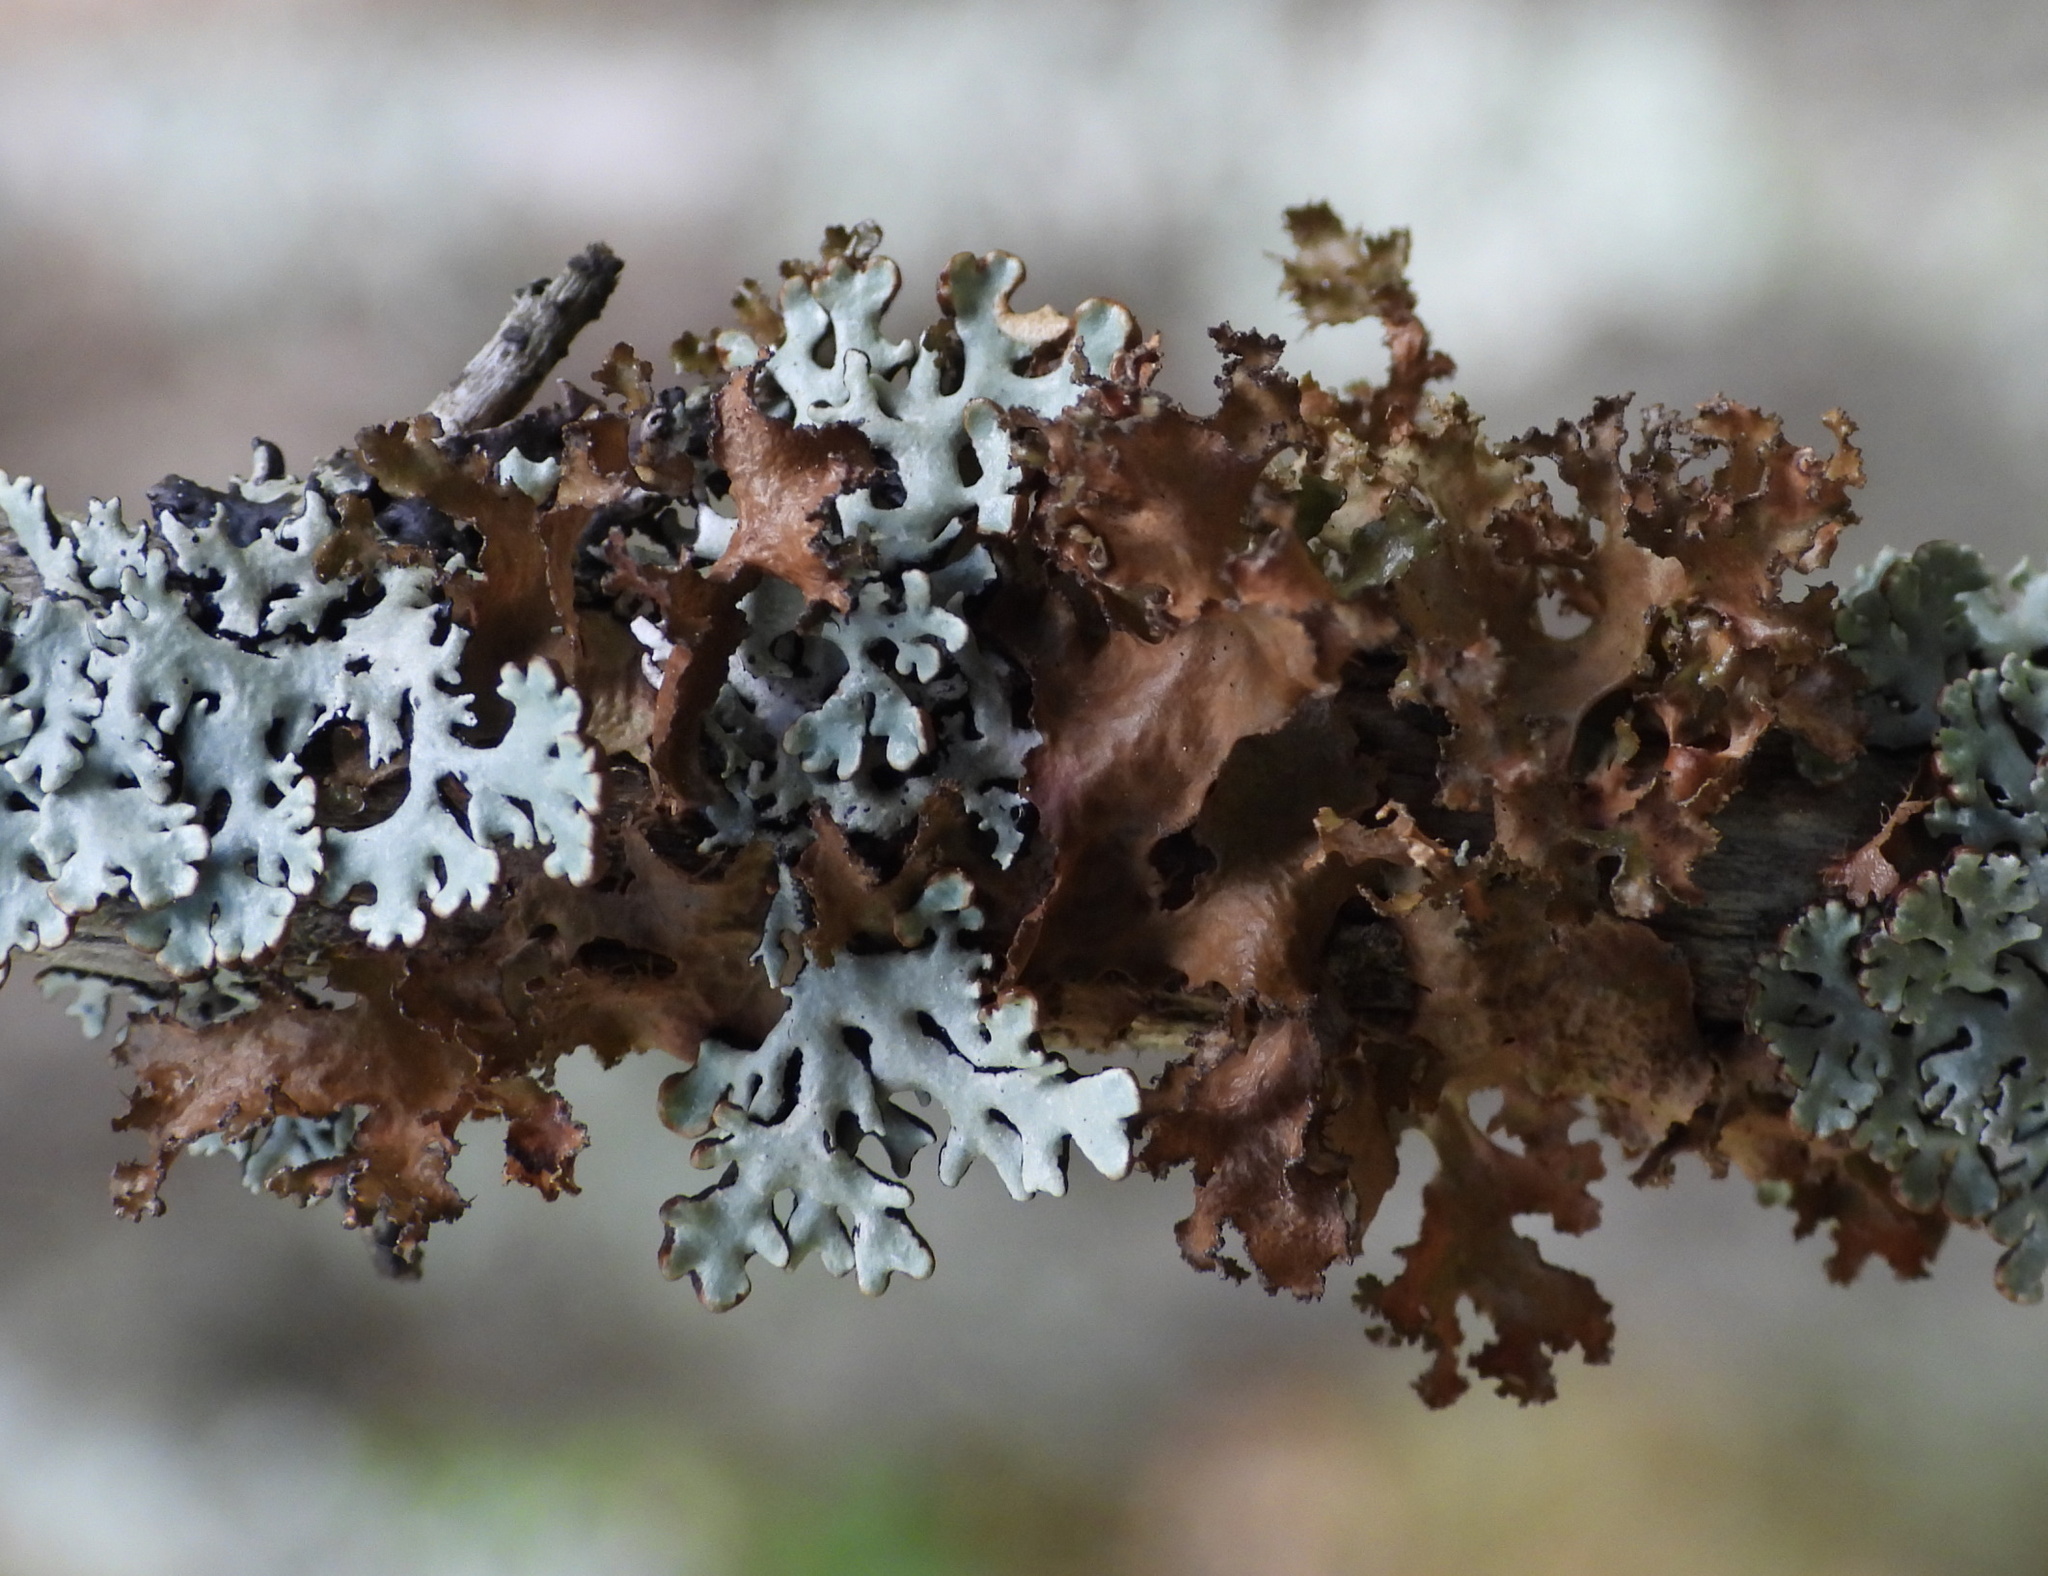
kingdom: Fungi
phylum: Ascomycota
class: Lecanoromycetes
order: Lecanorales
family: Parmeliaceae
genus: Nephromopsis
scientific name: Nephromopsis chlorophylla
